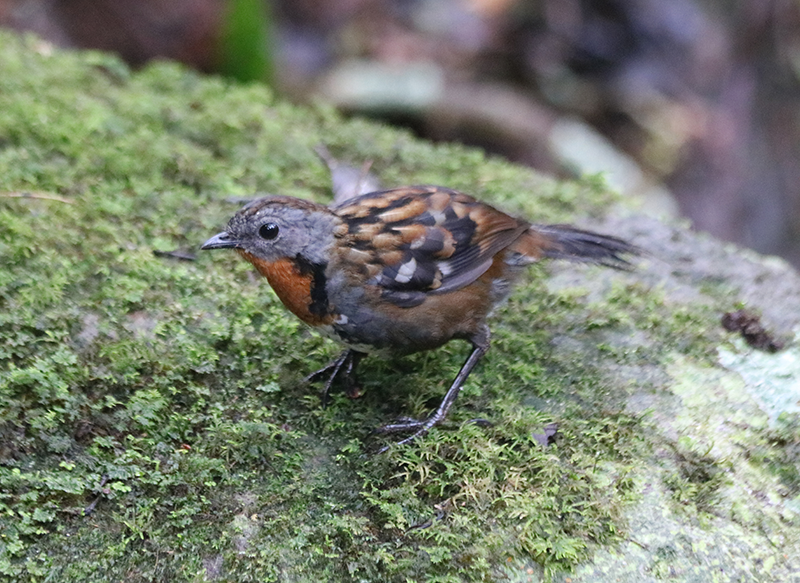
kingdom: Animalia
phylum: Chordata
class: Aves
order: Passeriformes
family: Orthonychidae
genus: Orthonyx
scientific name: Orthonyx temminckii
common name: Australian logrunner
